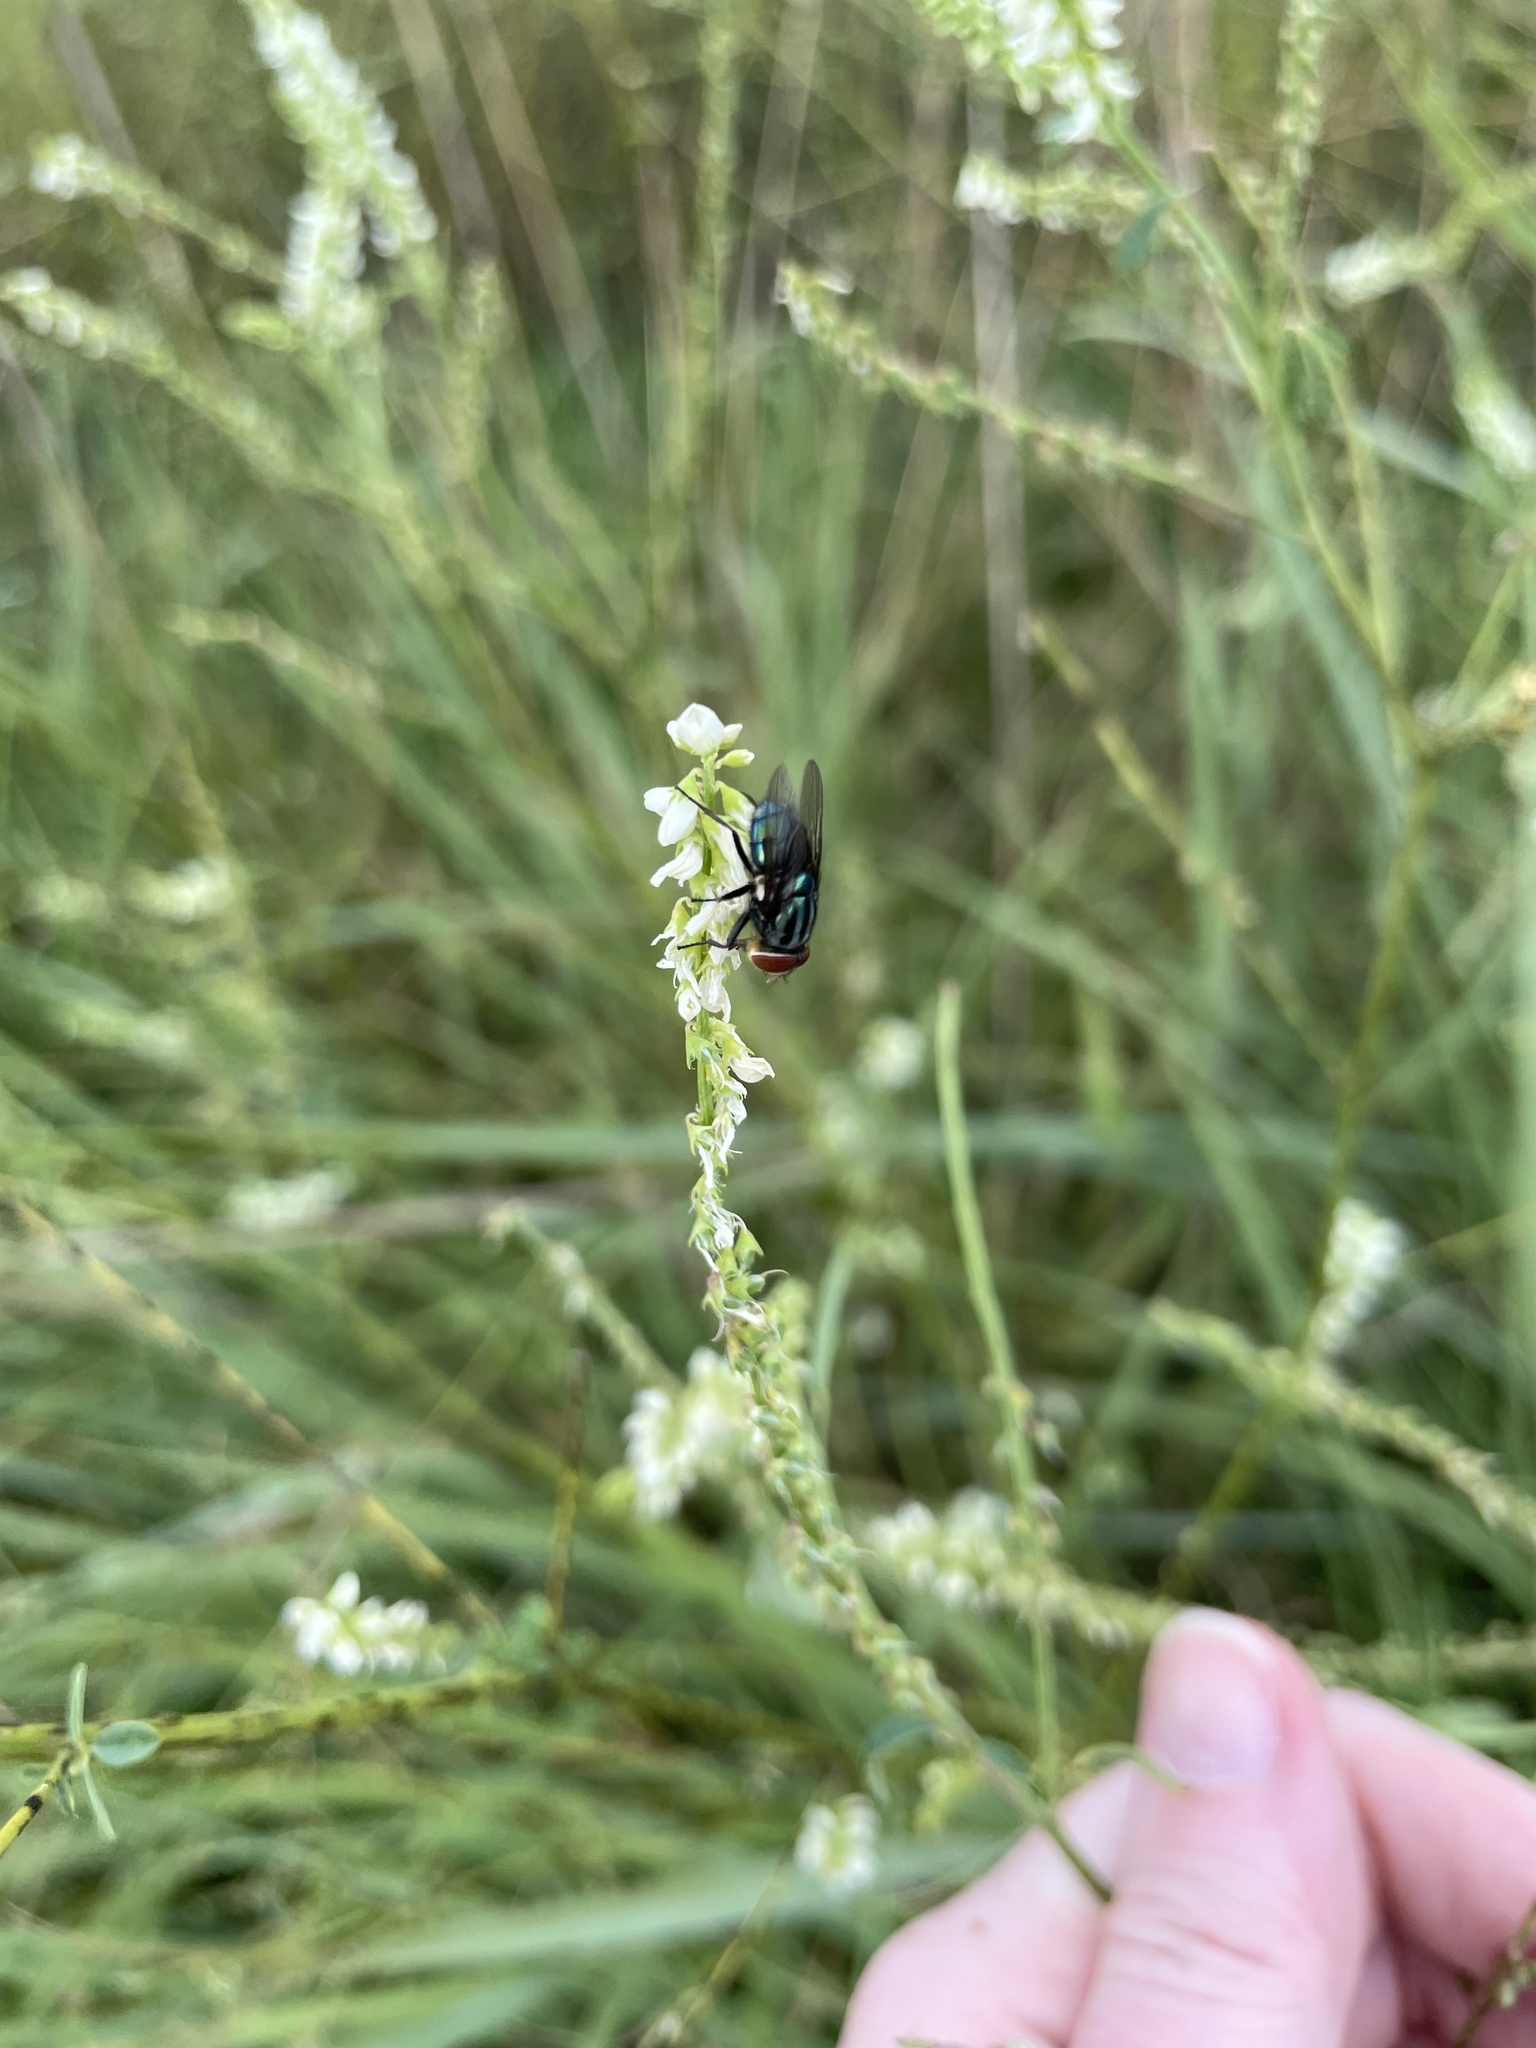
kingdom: Animalia
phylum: Arthropoda
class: Insecta
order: Diptera
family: Calliphoridae
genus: Cochliomyia
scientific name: Cochliomyia macellaria
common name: Secondary screwworm
